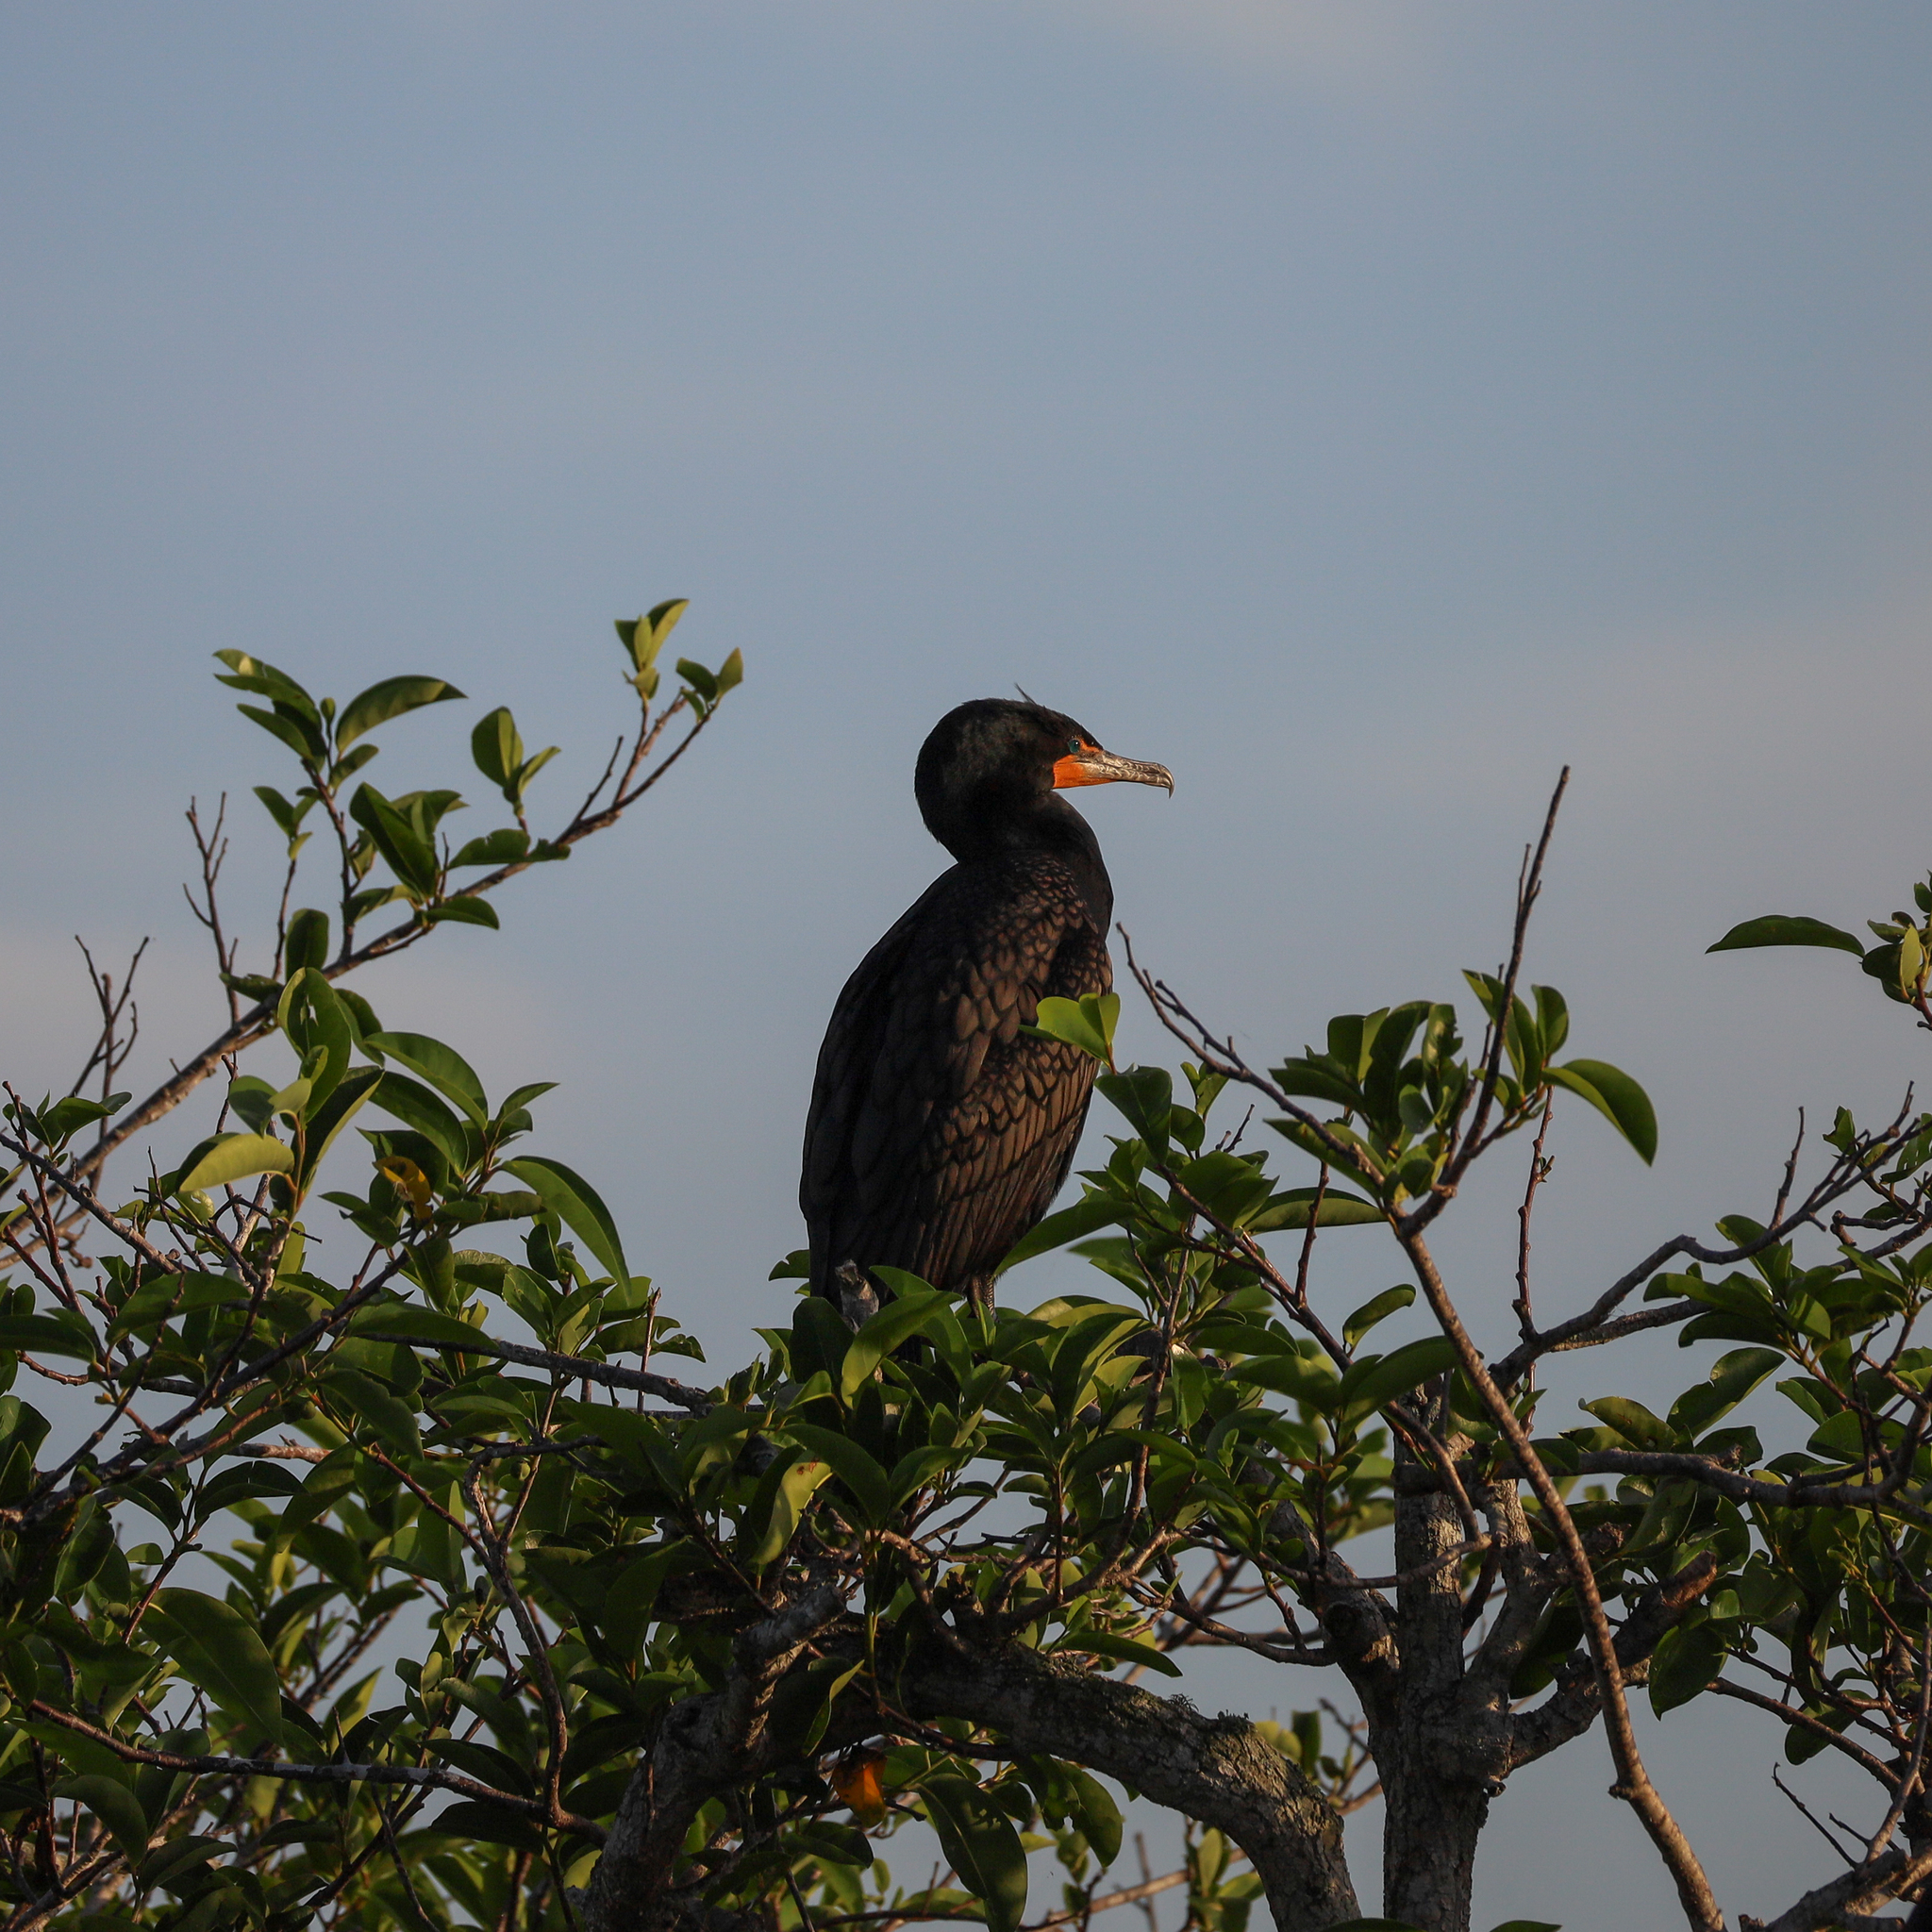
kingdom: Animalia
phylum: Chordata
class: Aves
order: Suliformes
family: Phalacrocoracidae
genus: Phalacrocorax
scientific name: Phalacrocorax auritus
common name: Double-crested cormorant
